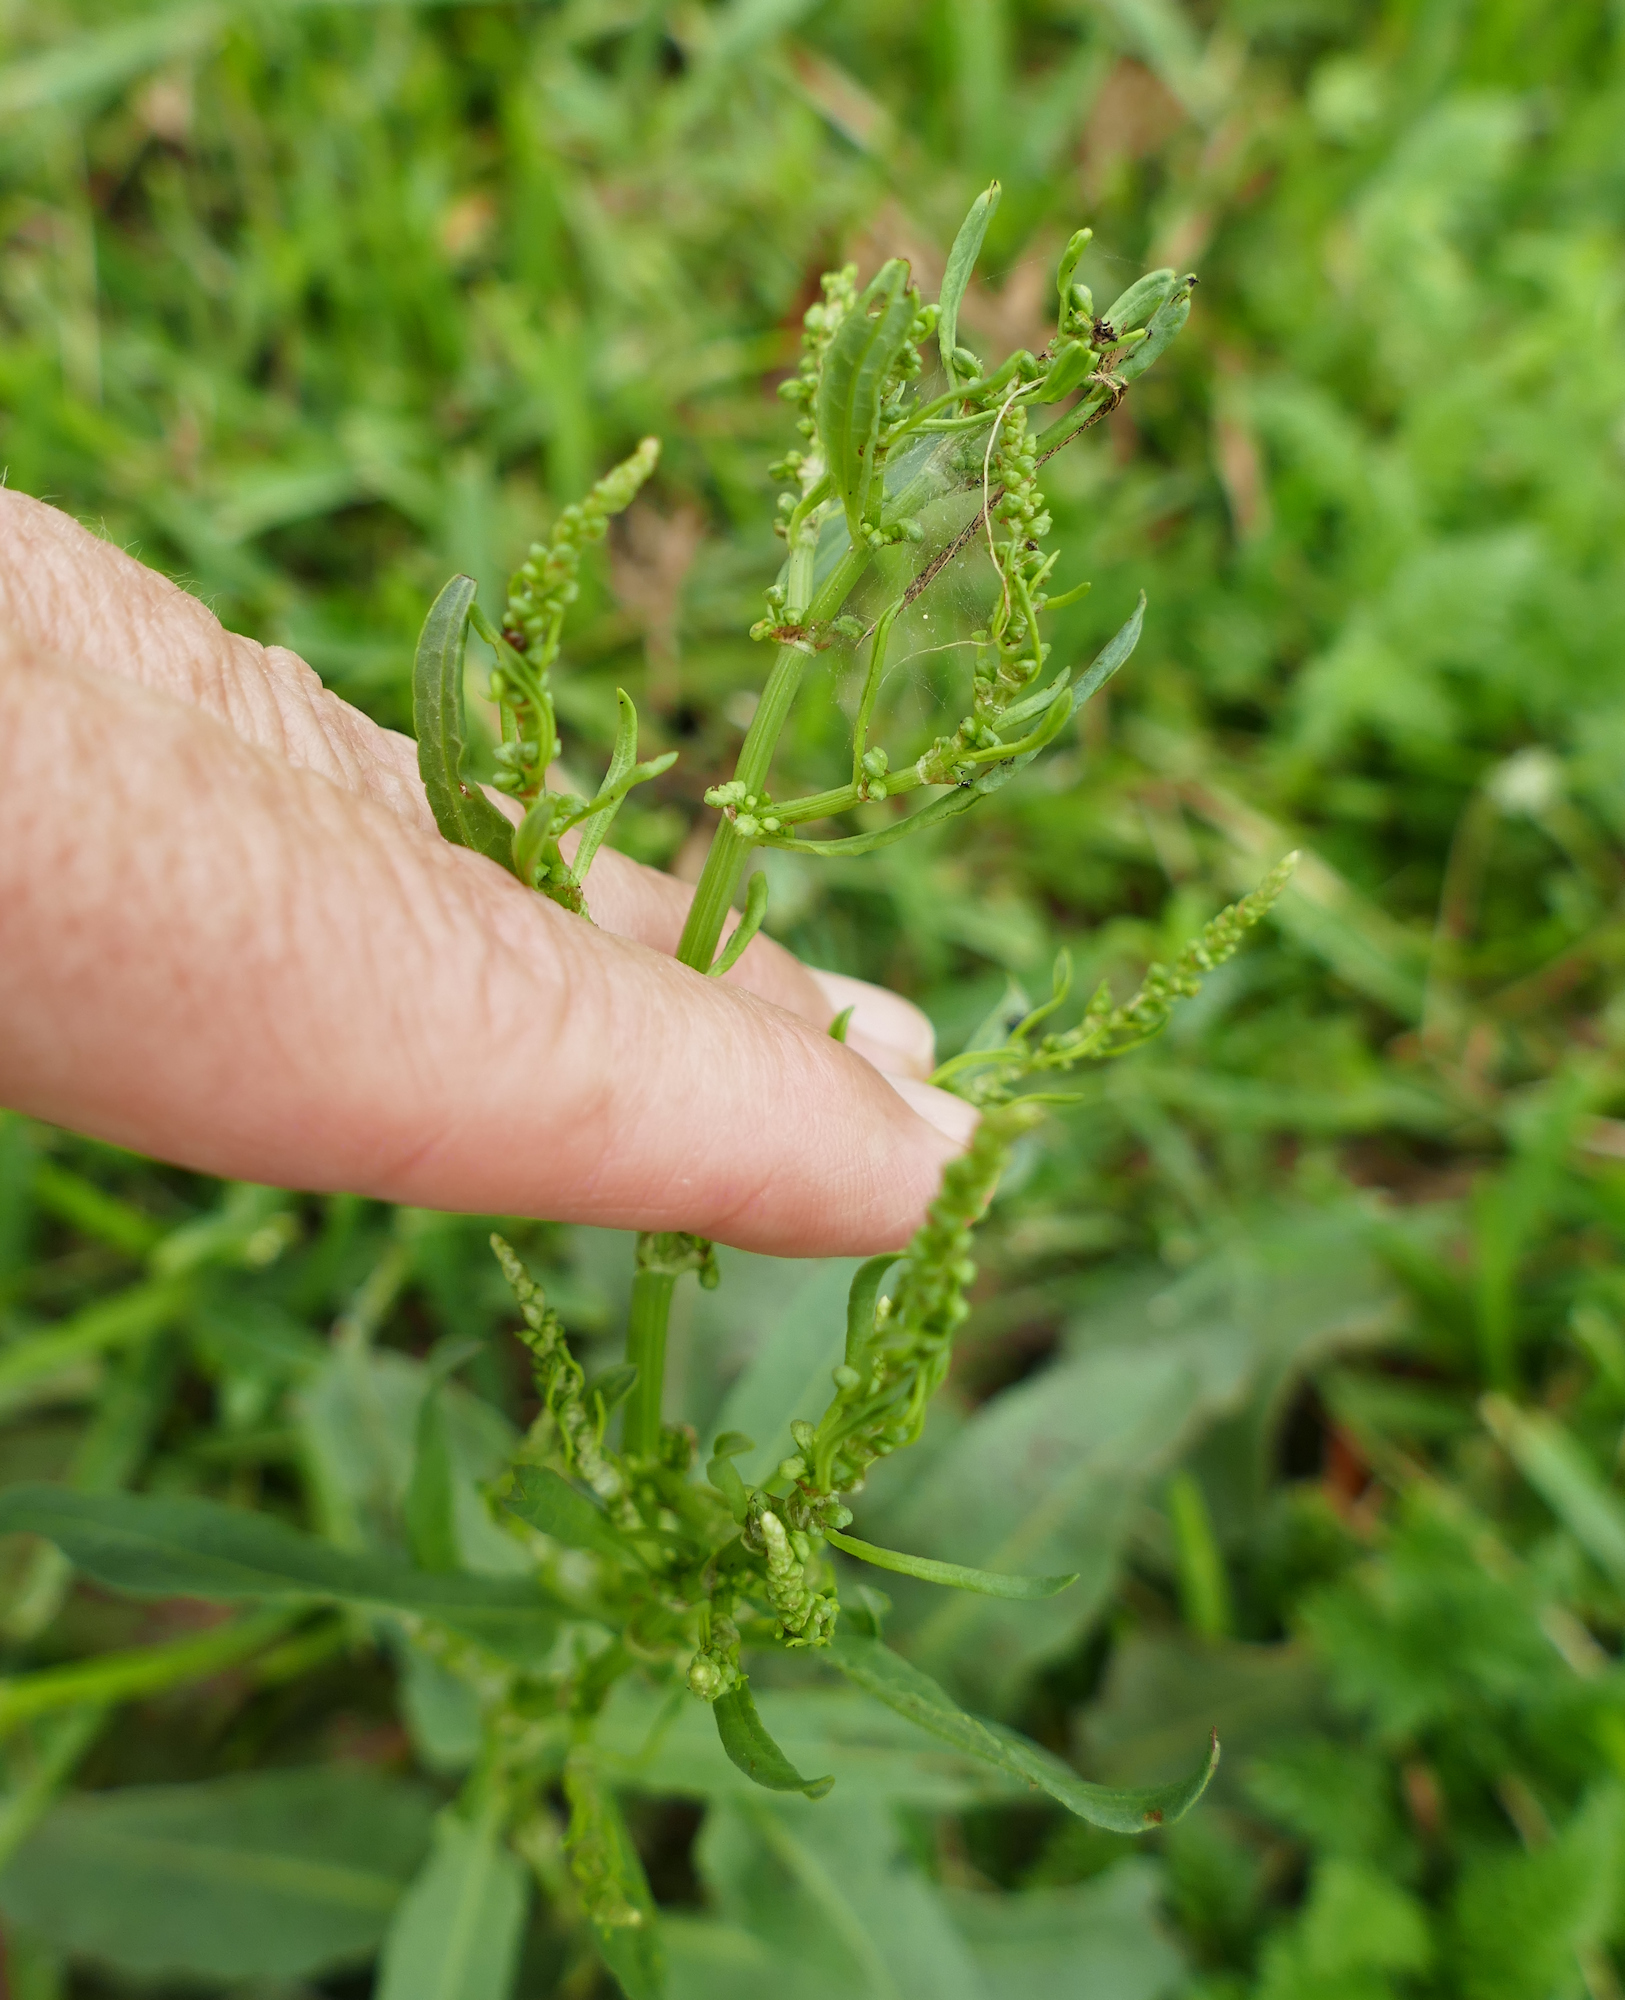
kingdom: Plantae
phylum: Tracheophyta
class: Magnoliopsida
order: Caryophyllales
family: Polygonaceae
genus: Rumex
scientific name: Rumex altissimus
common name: Smooth dock
